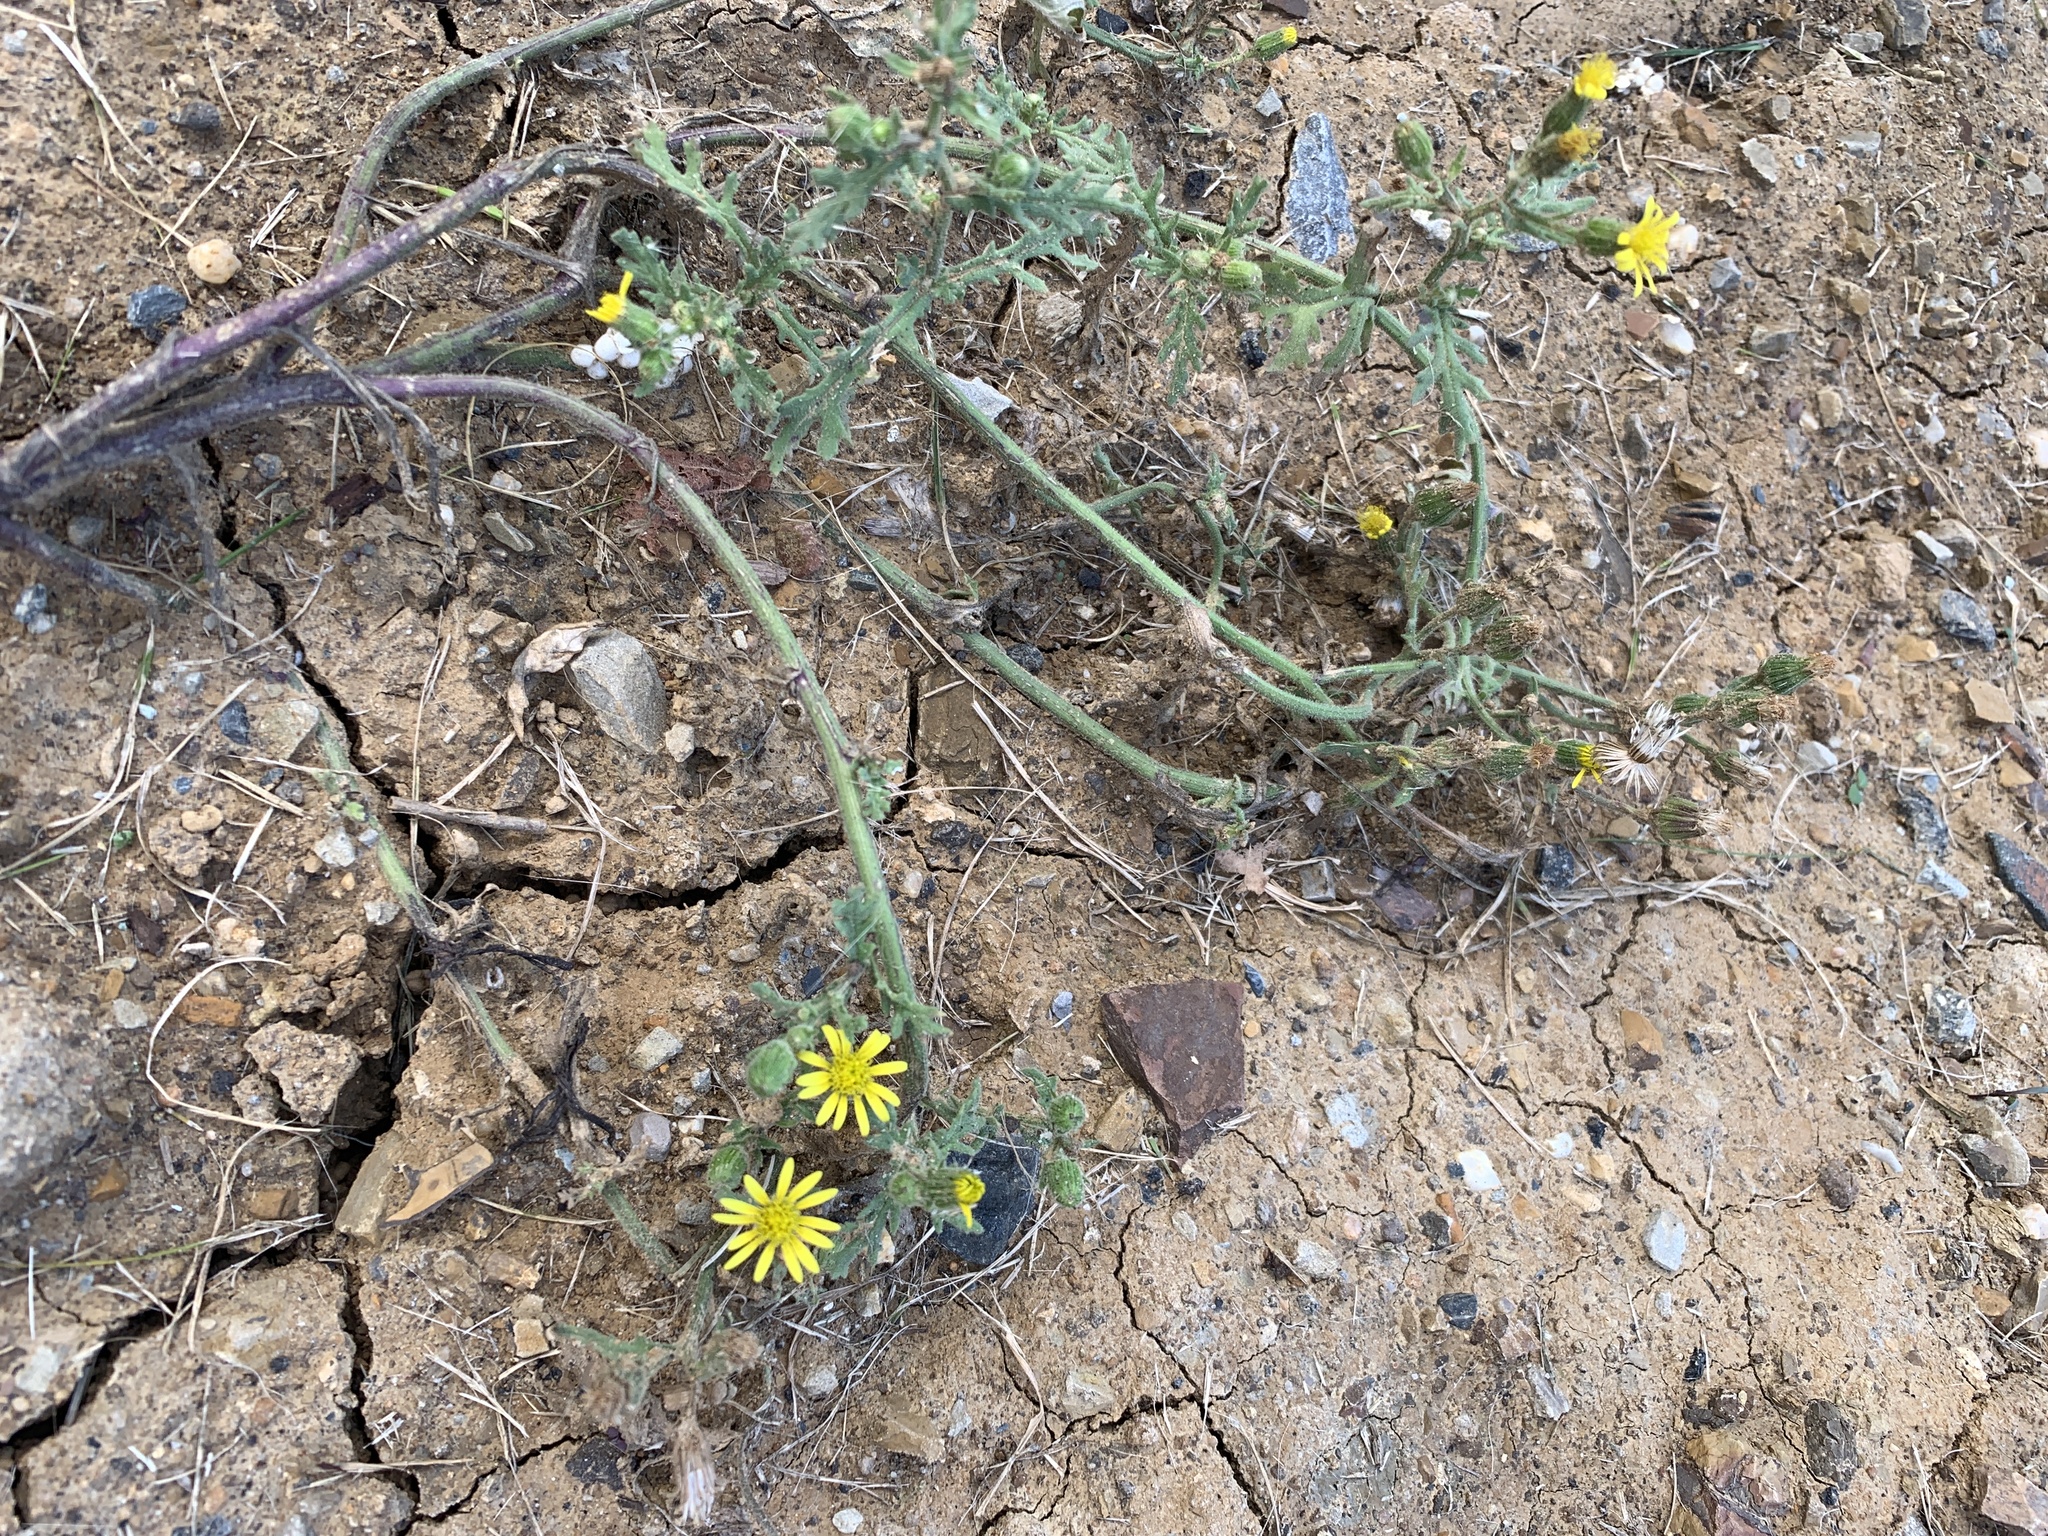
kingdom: Plantae
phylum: Tracheophyta
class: Magnoliopsida
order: Asterales
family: Asteraceae
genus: Senecio
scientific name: Senecio viscosus
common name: Sticky groundsel
